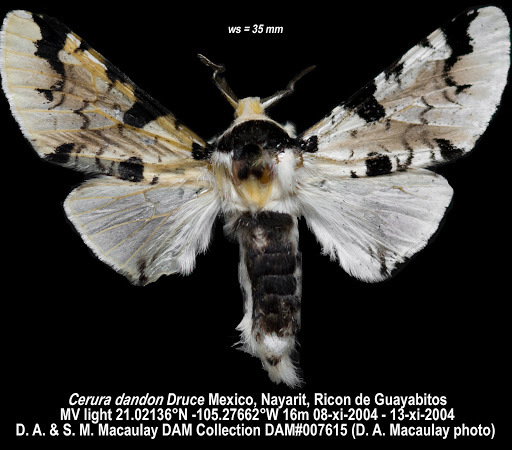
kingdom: Animalia
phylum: Arthropoda
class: Insecta
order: Lepidoptera
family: Notodontidae
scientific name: Notodontidae
